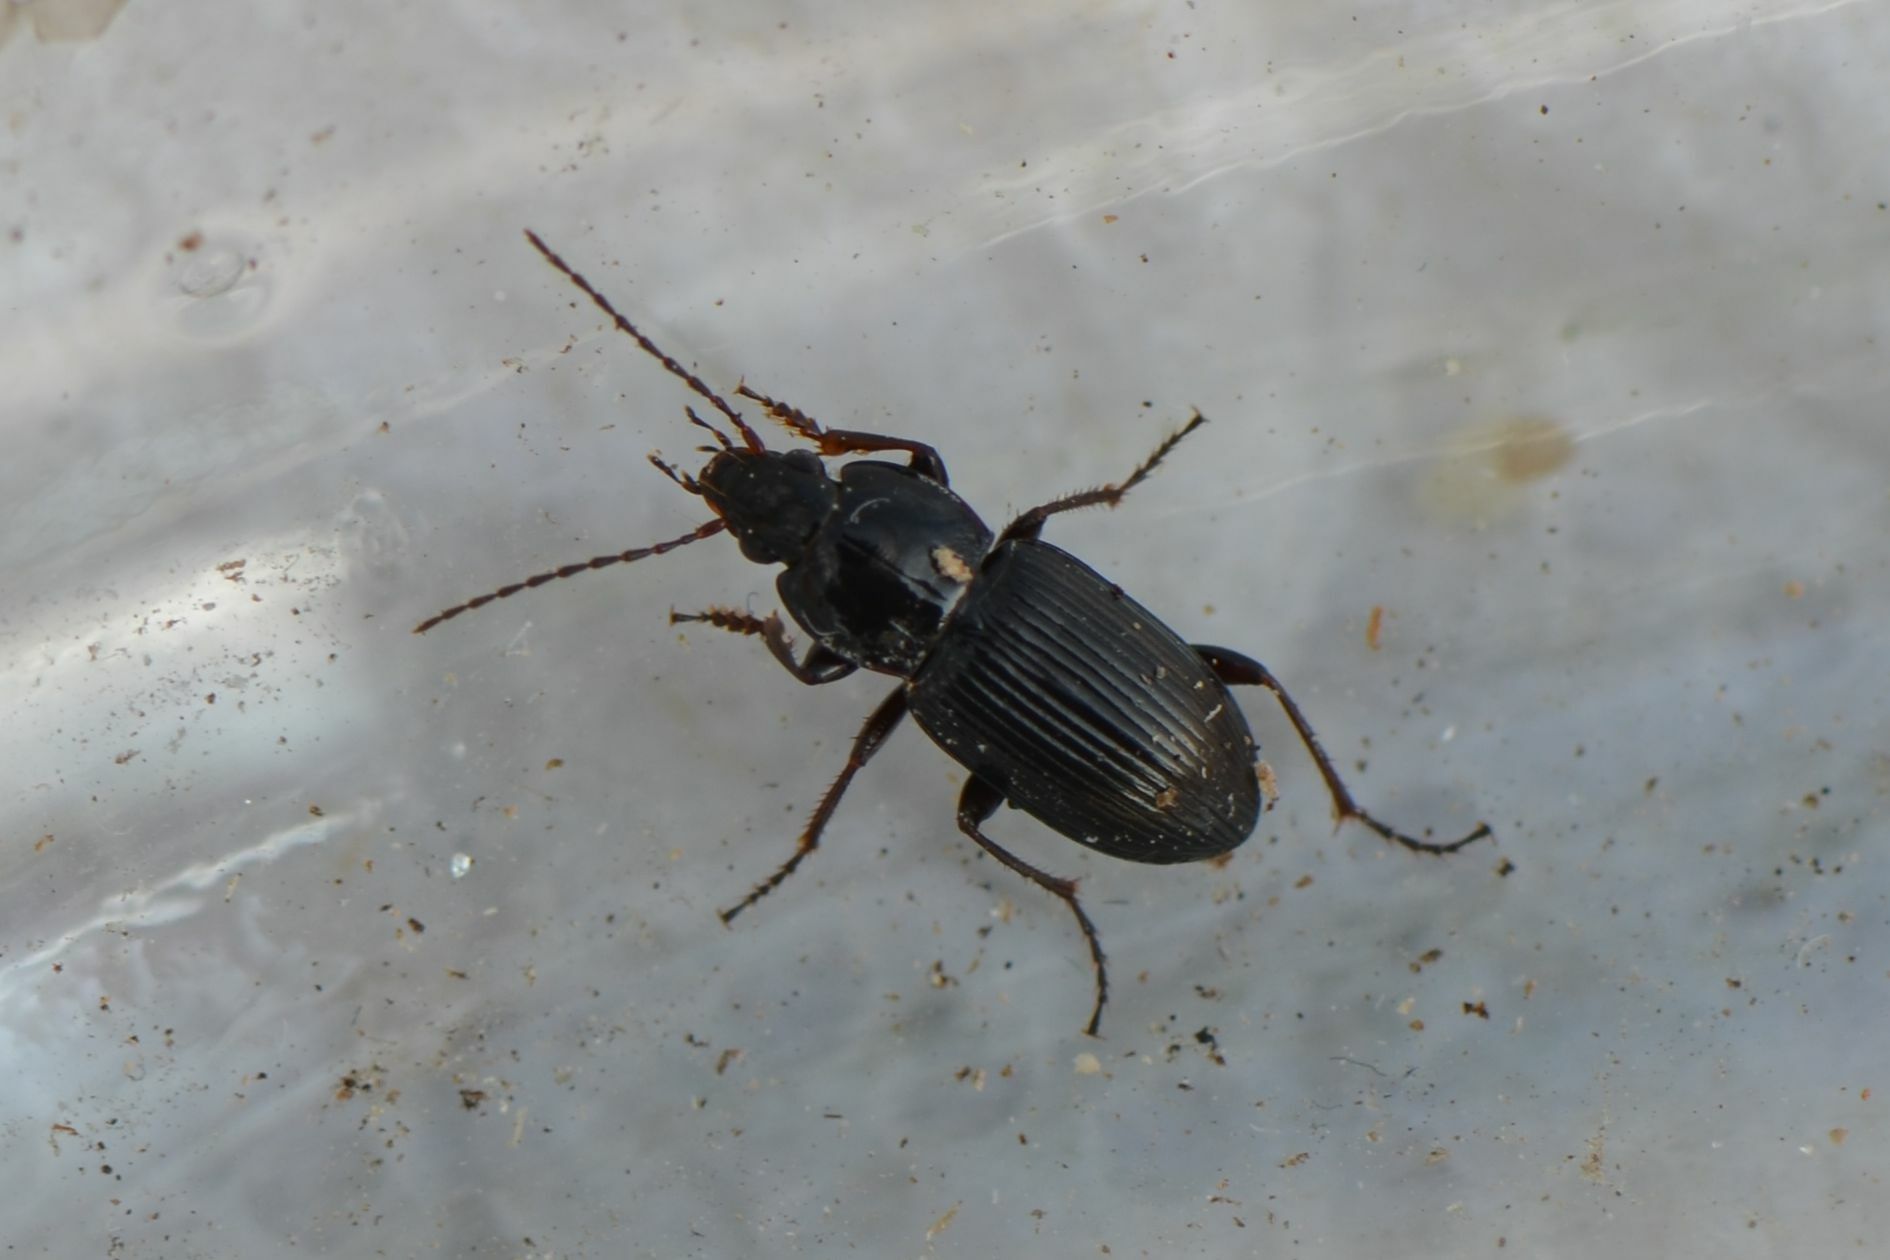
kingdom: Animalia
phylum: Arthropoda
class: Insecta
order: Coleoptera
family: Carabidae
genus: Pterostichus
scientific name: Pterostichus vernalis
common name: Spring harp ground beetle
